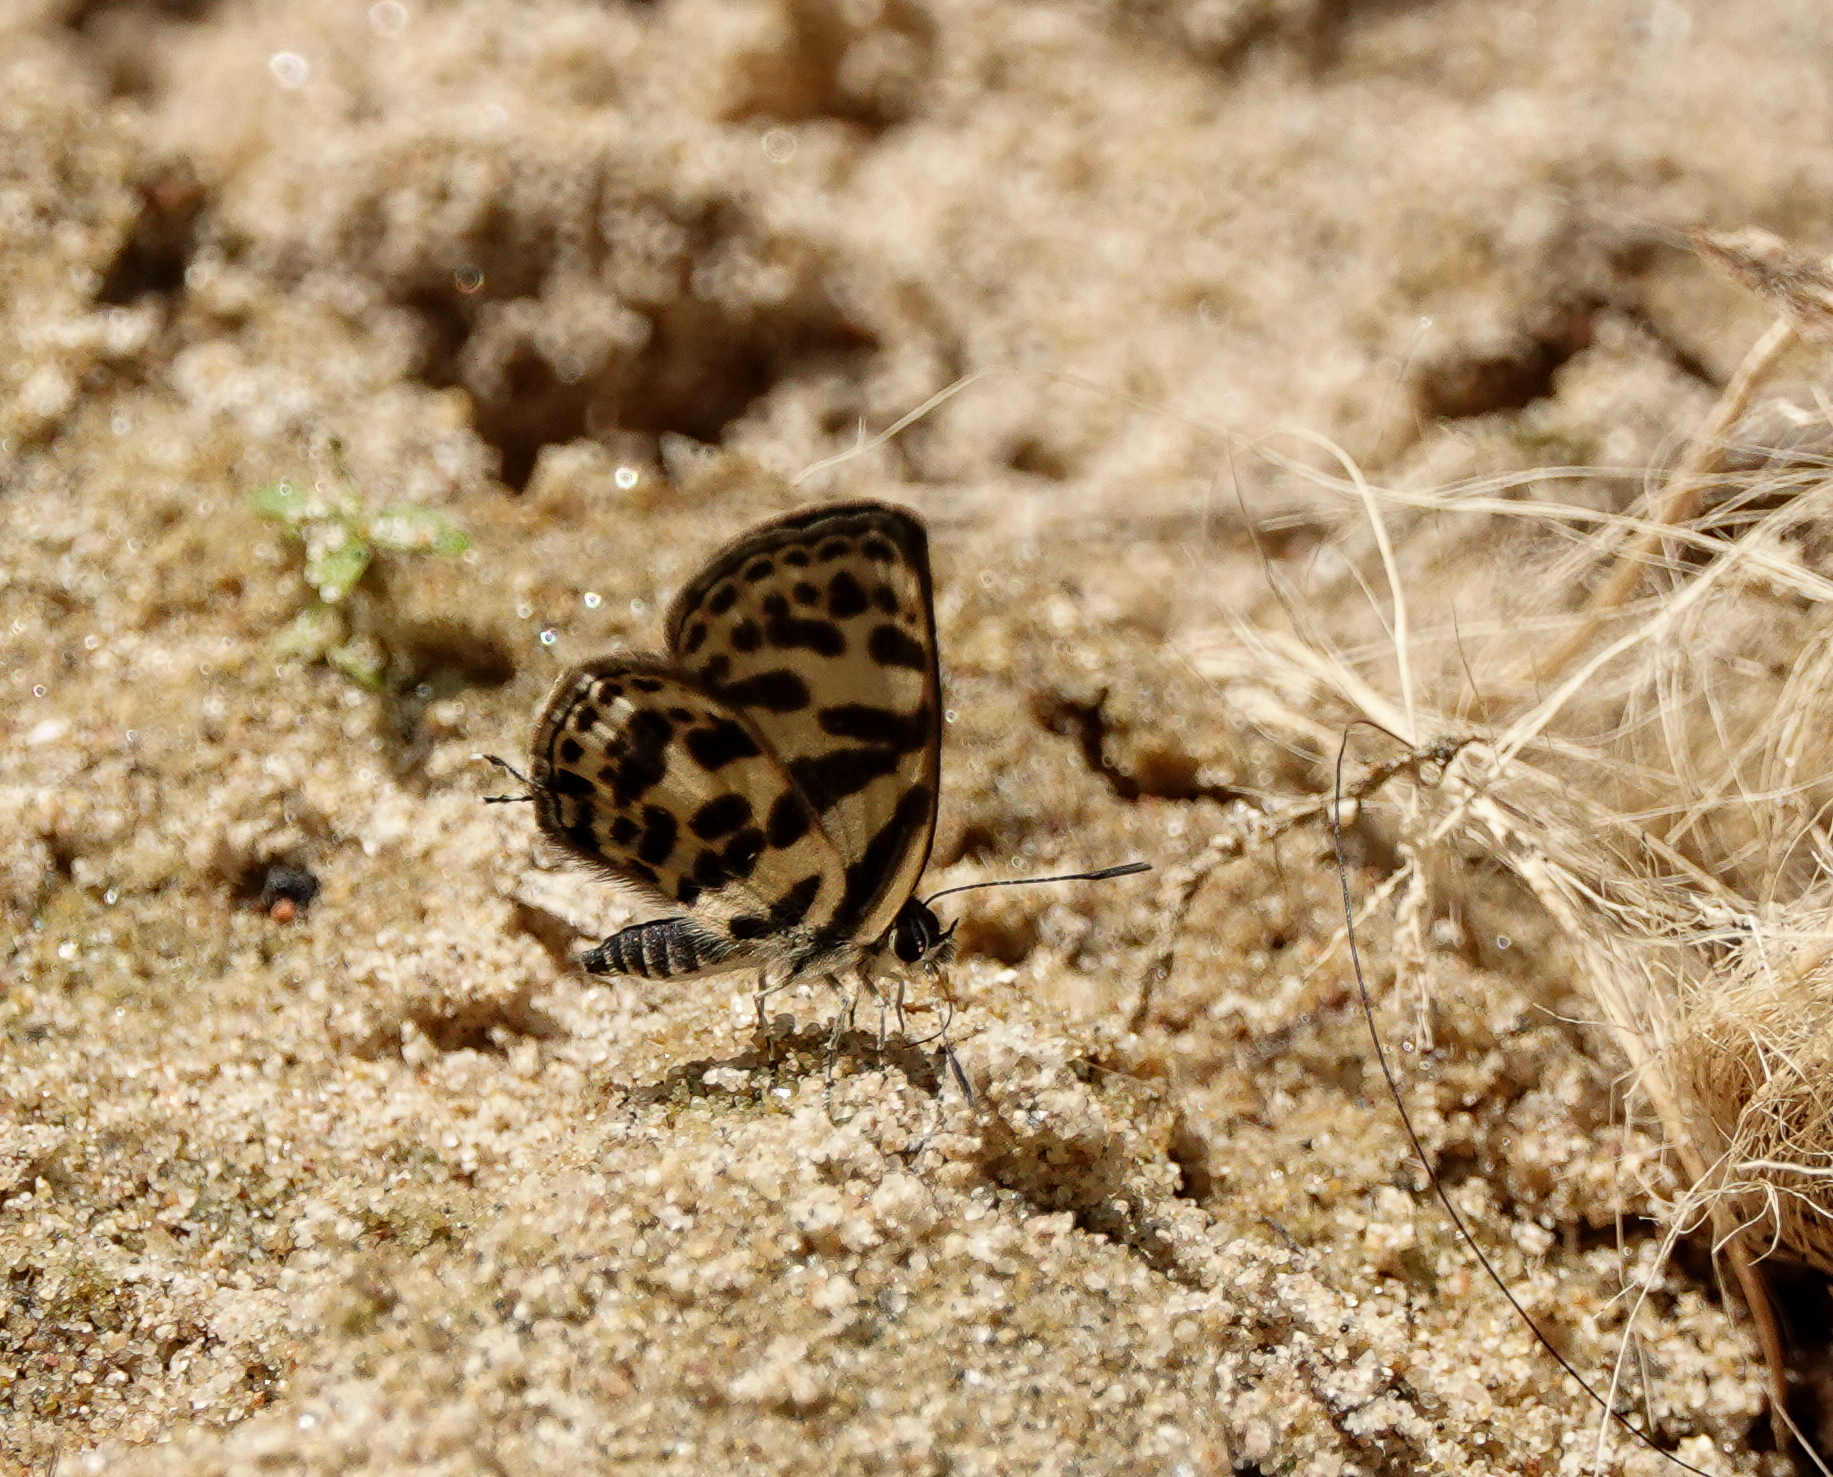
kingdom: Animalia
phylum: Arthropoda
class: Insecta
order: Lepidoptera
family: Lycaenidae
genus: Tarucus
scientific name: Tarucus
